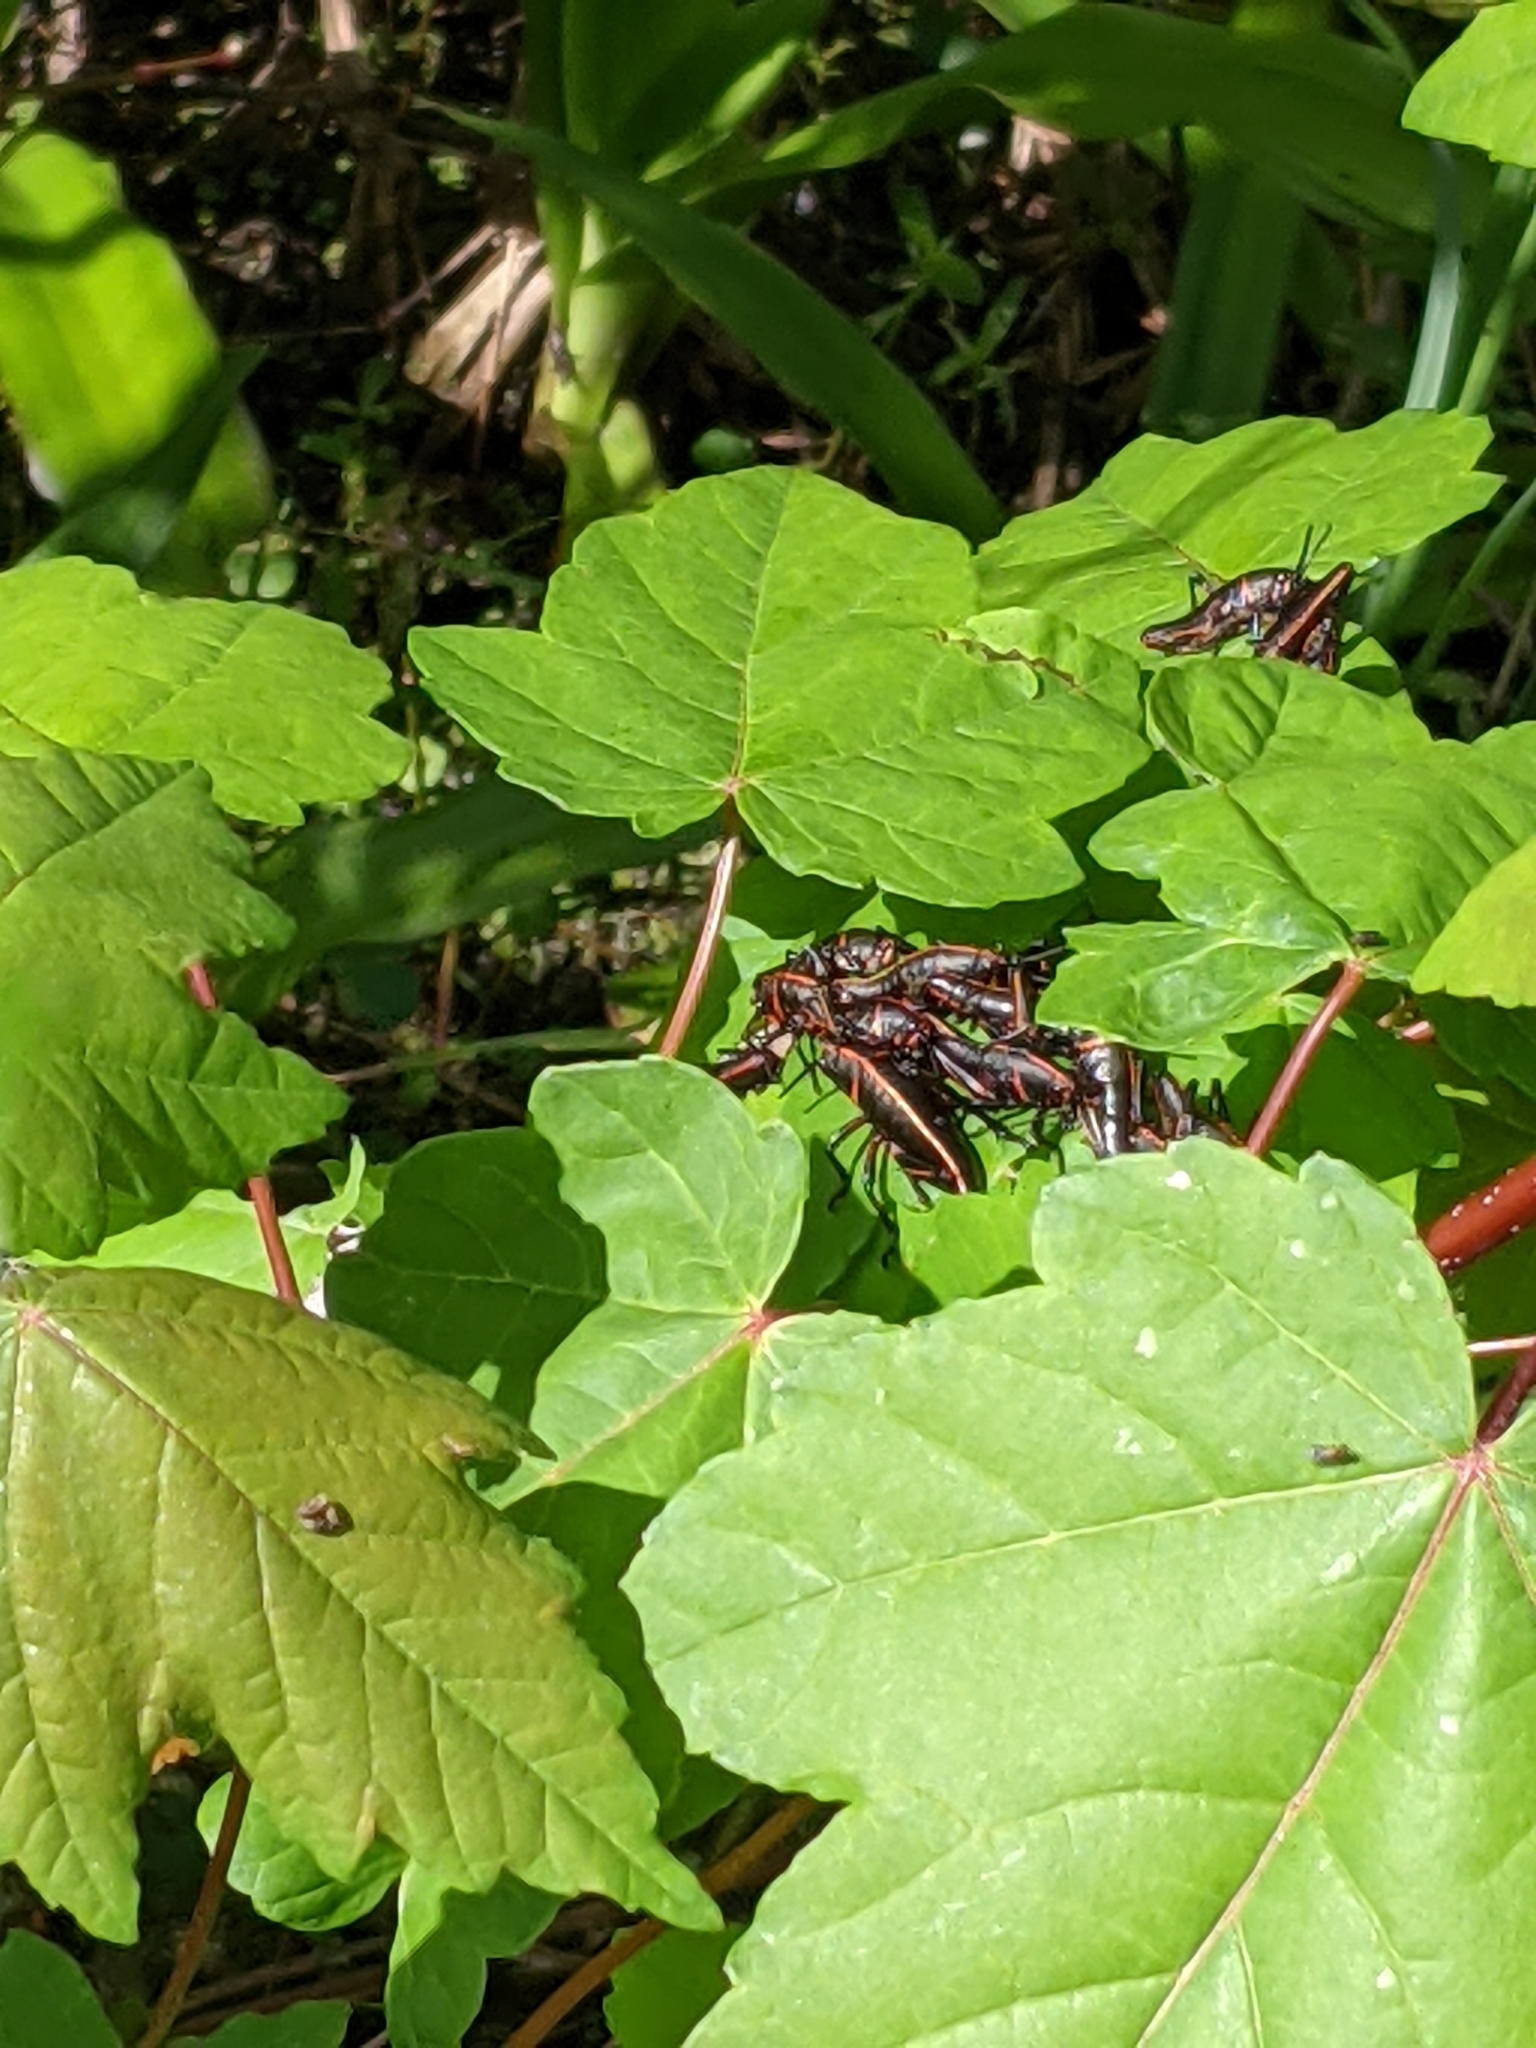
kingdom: Animalia
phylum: Arthropoda
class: Insecta
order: Orthoptera
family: Romaleidae
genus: Romalea
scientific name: Romalea microptera
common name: Eastern lubber grasshopper
